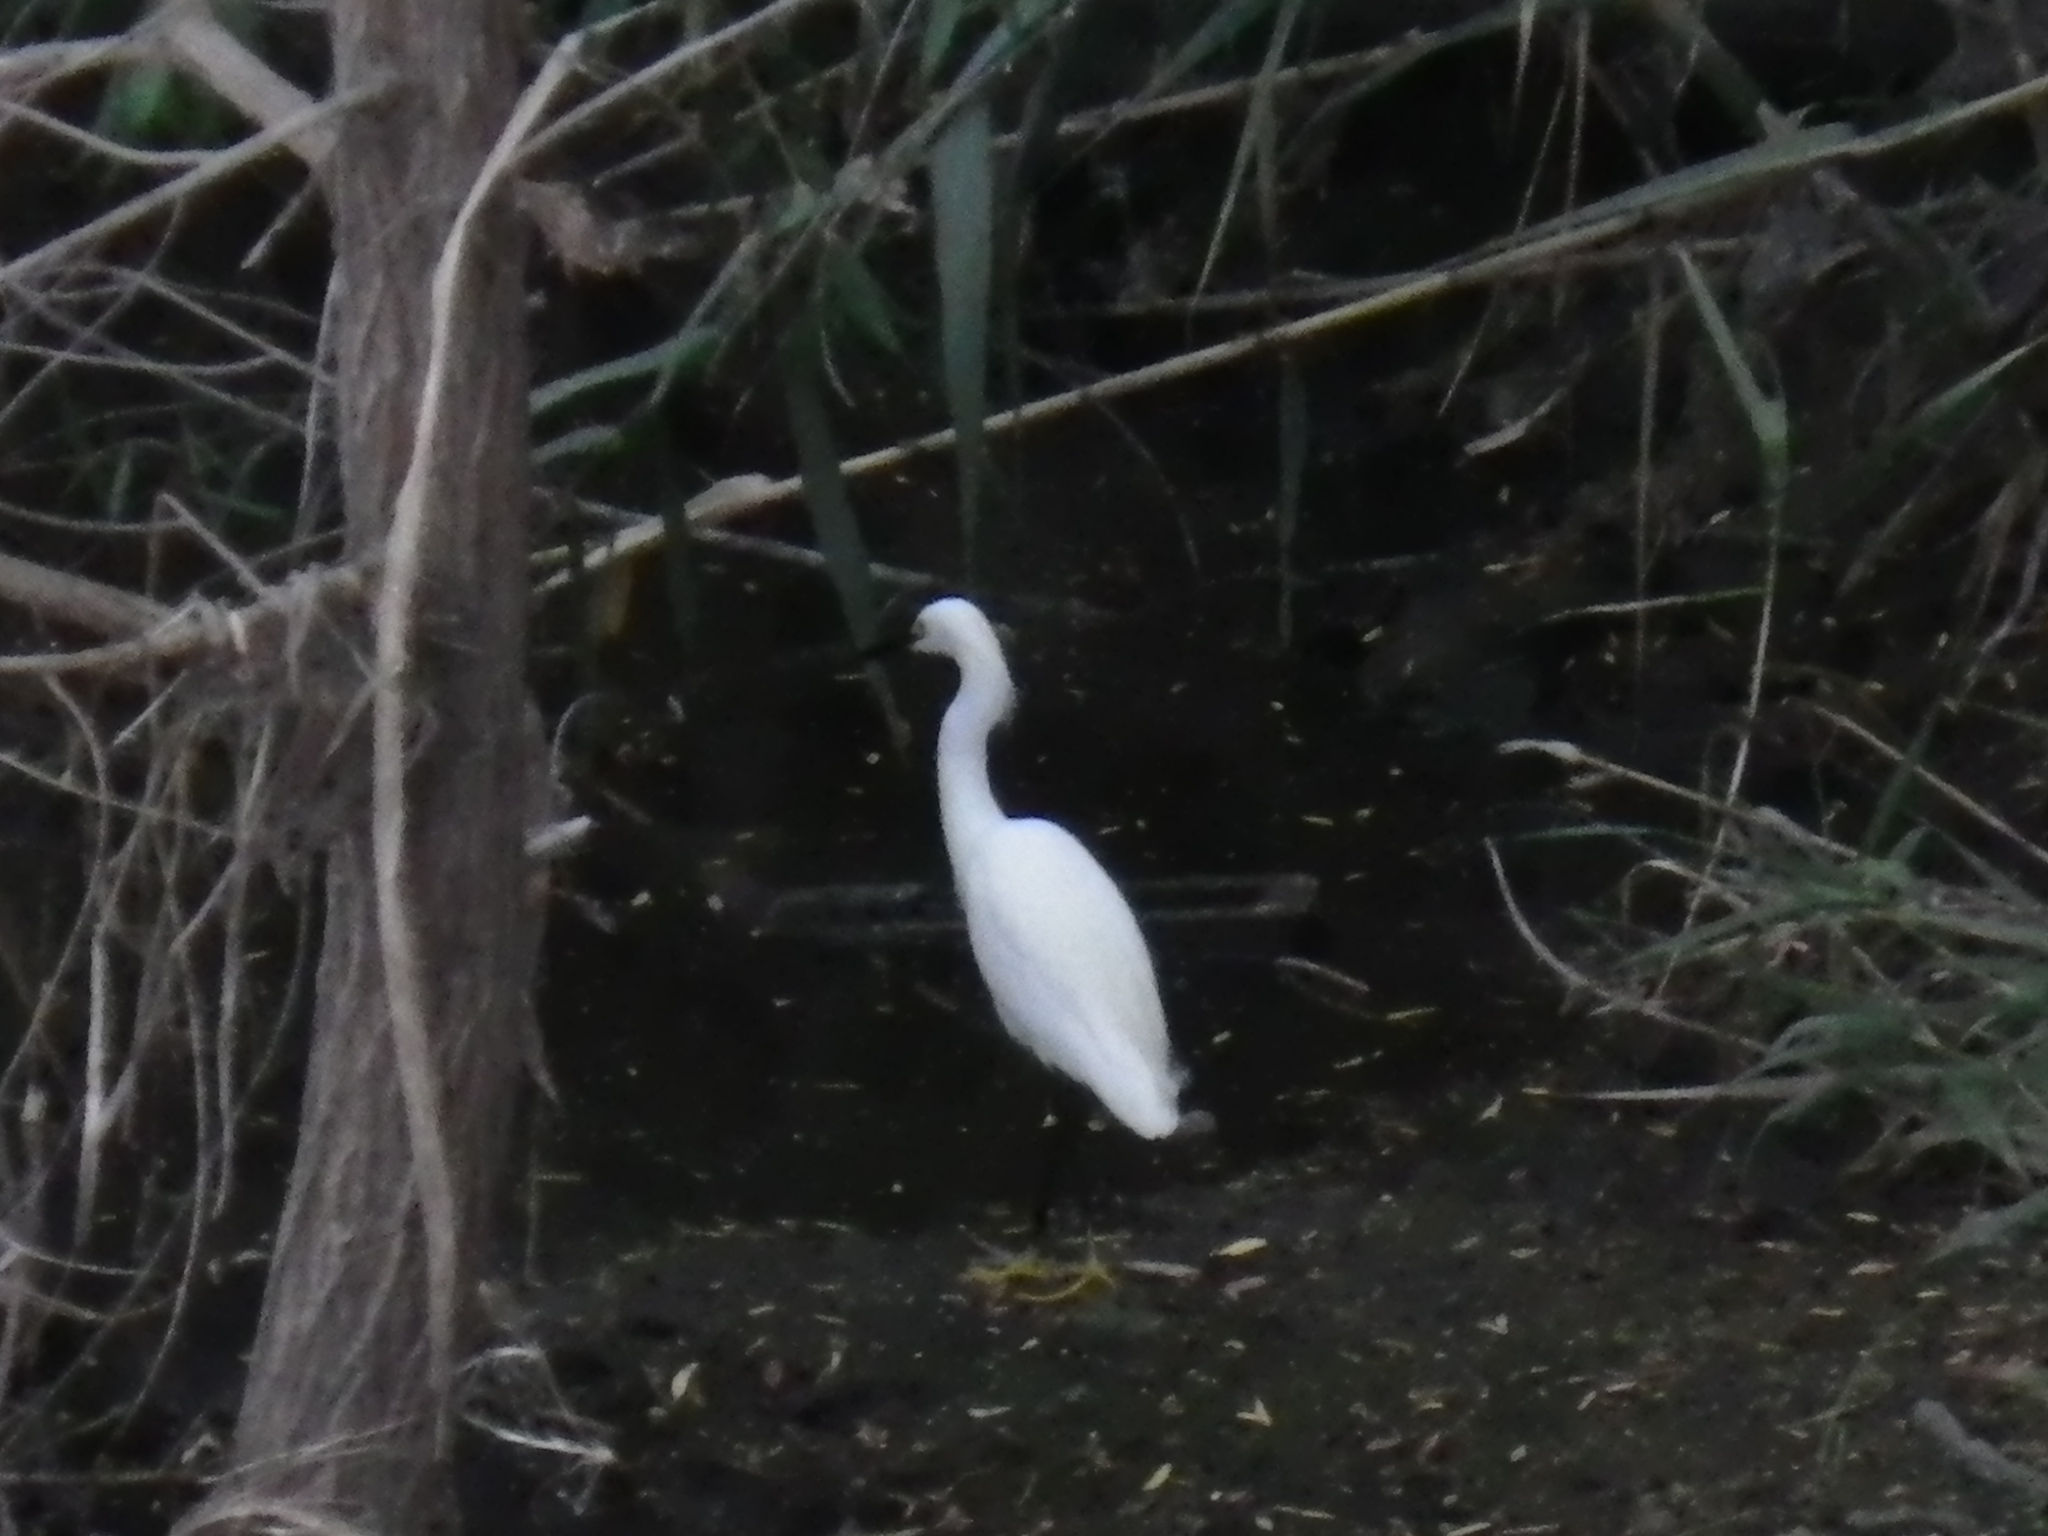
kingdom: Animalia
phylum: Chordata
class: Aves
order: Pelecaniformes
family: Ardeidae
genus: Egretta
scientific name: Egretta thula
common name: Snowy egret
